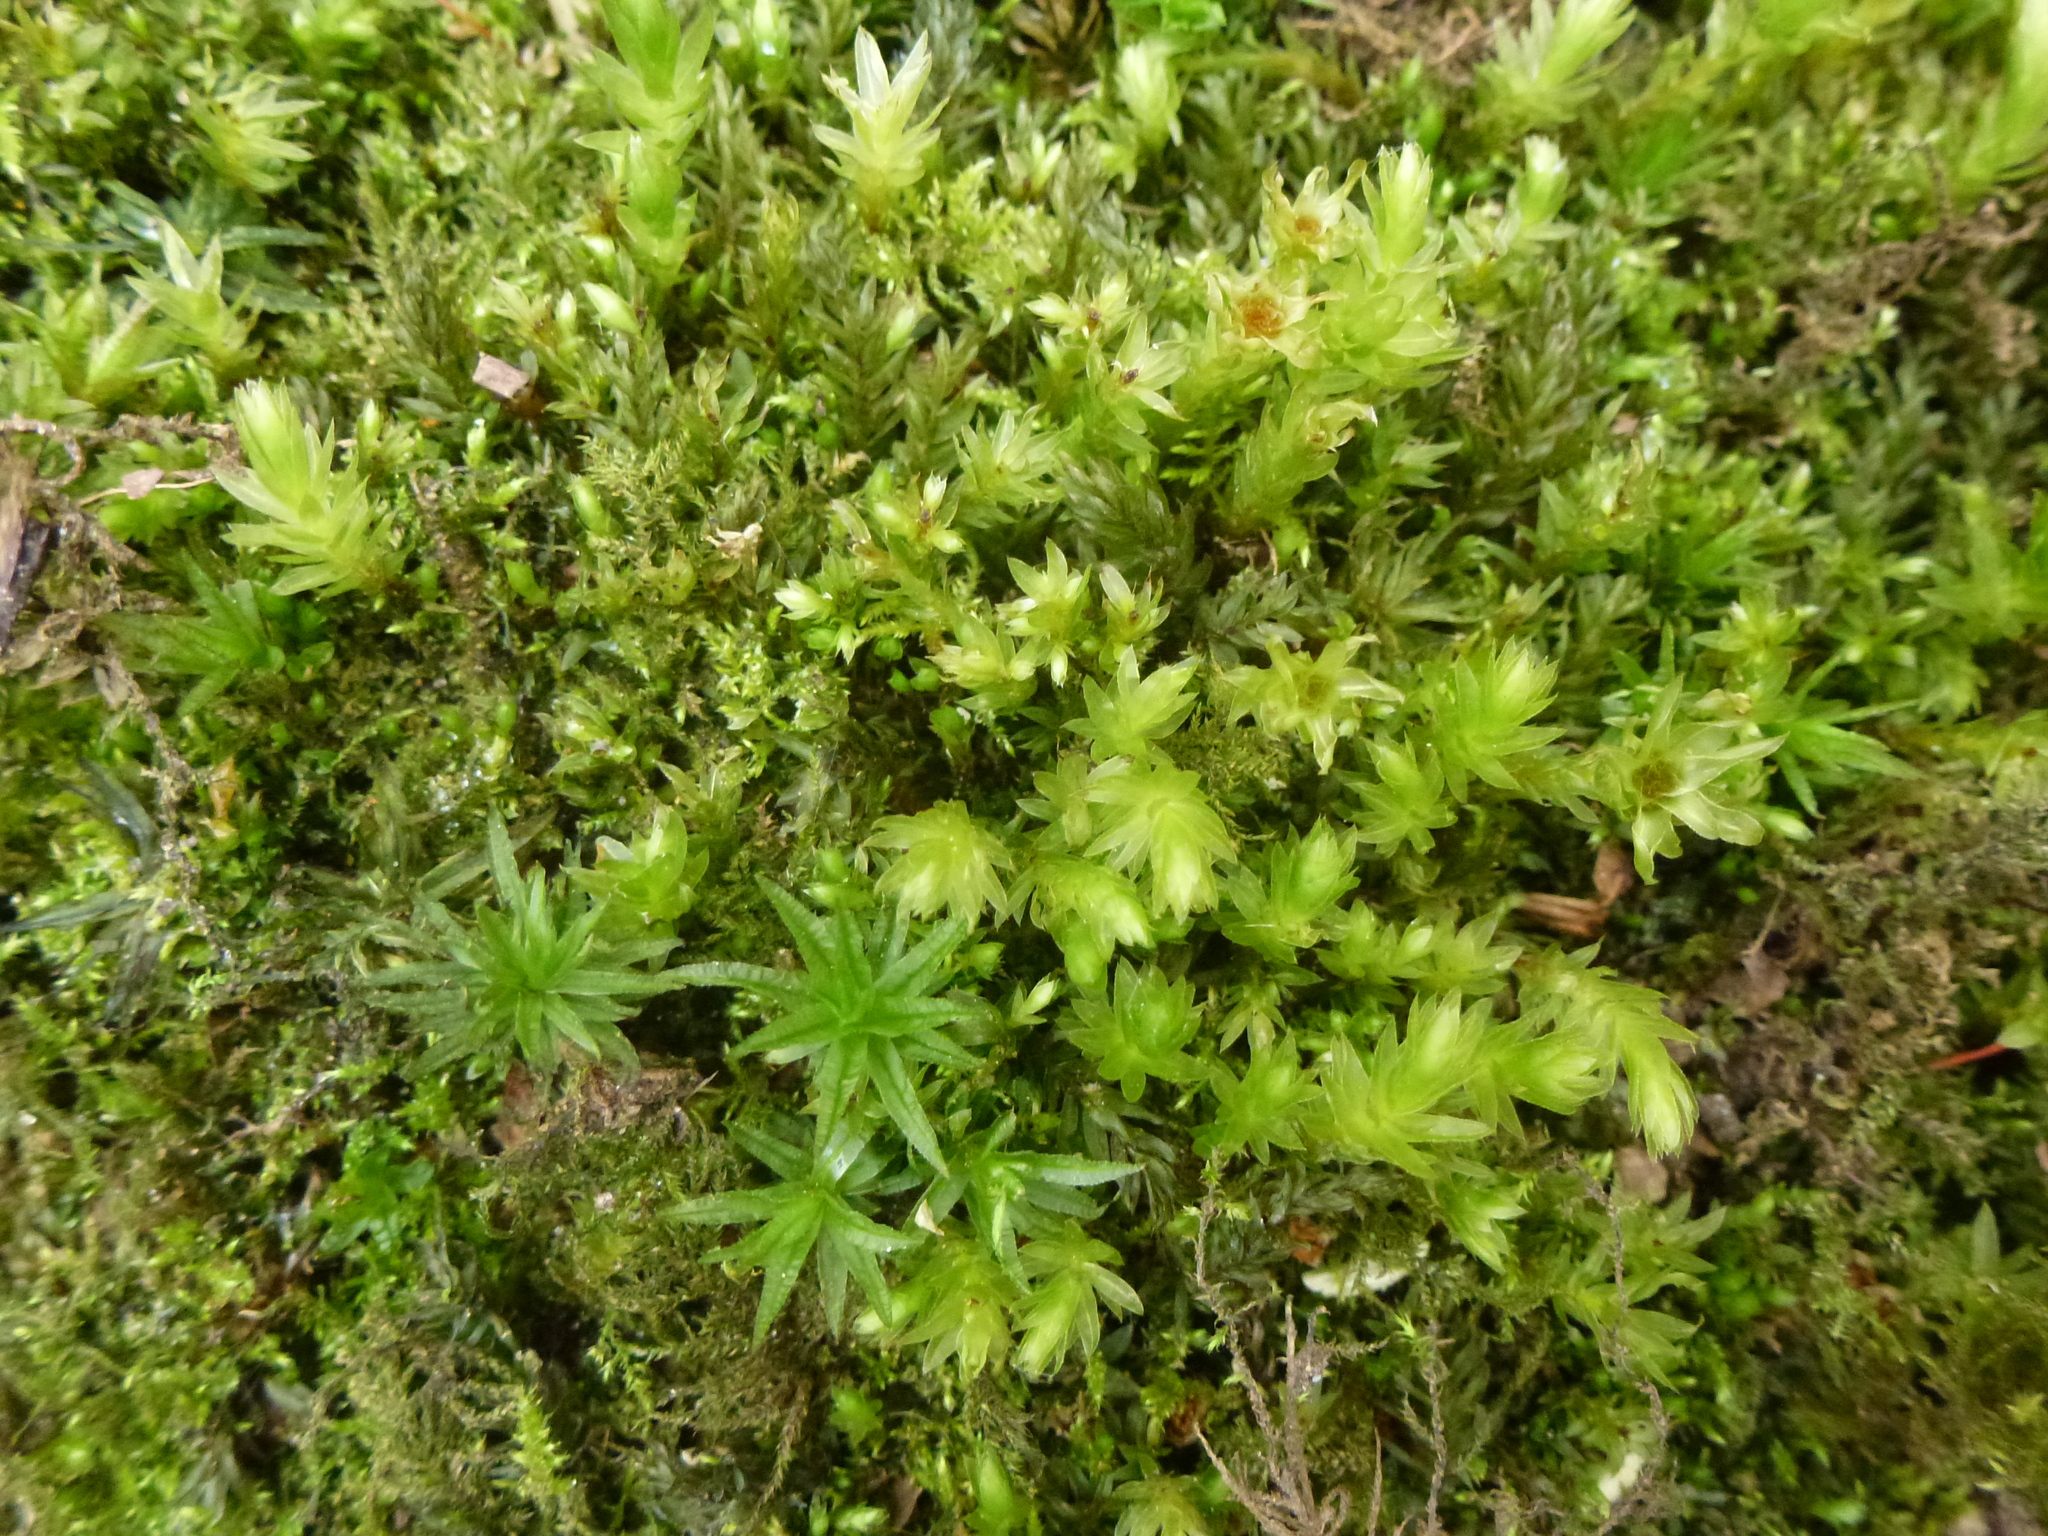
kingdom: Plantae
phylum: Bryophyta
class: Bryopsida
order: Bryales
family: Mniaceae
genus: Mnium
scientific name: Mnium hornum
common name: Swan's-neck leafy moss
